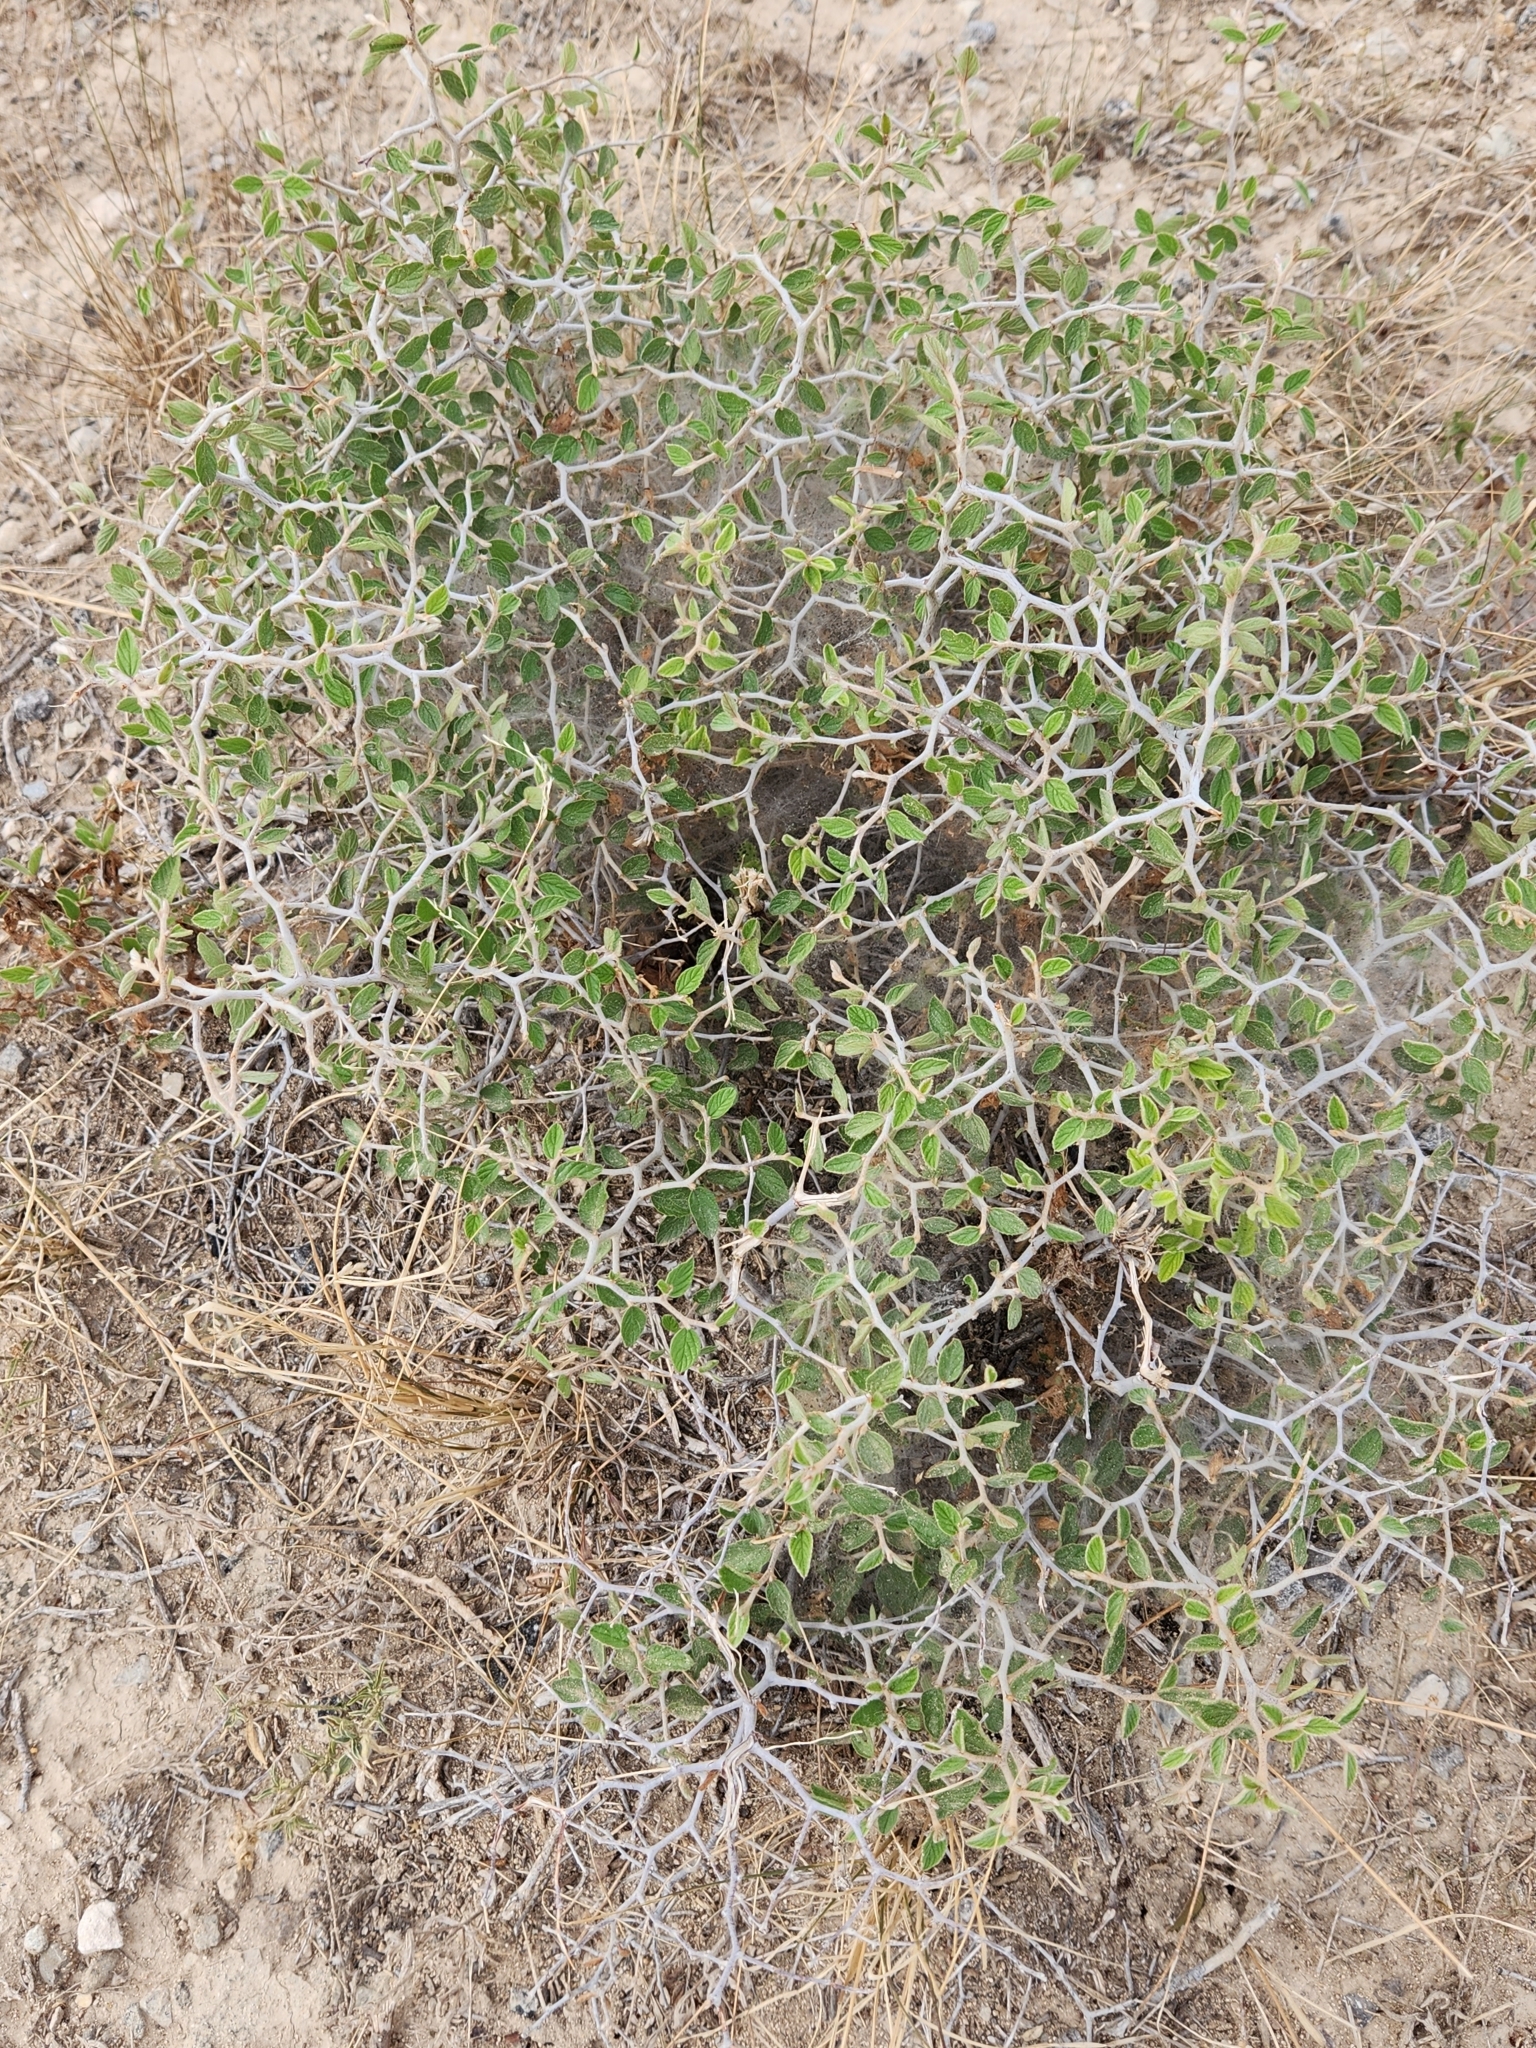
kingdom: Plantae
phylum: Tracheophyta
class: Magnoliopsida
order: Rosales
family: Rhamnaceae
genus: Colubrina
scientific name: Colubrina texensis
